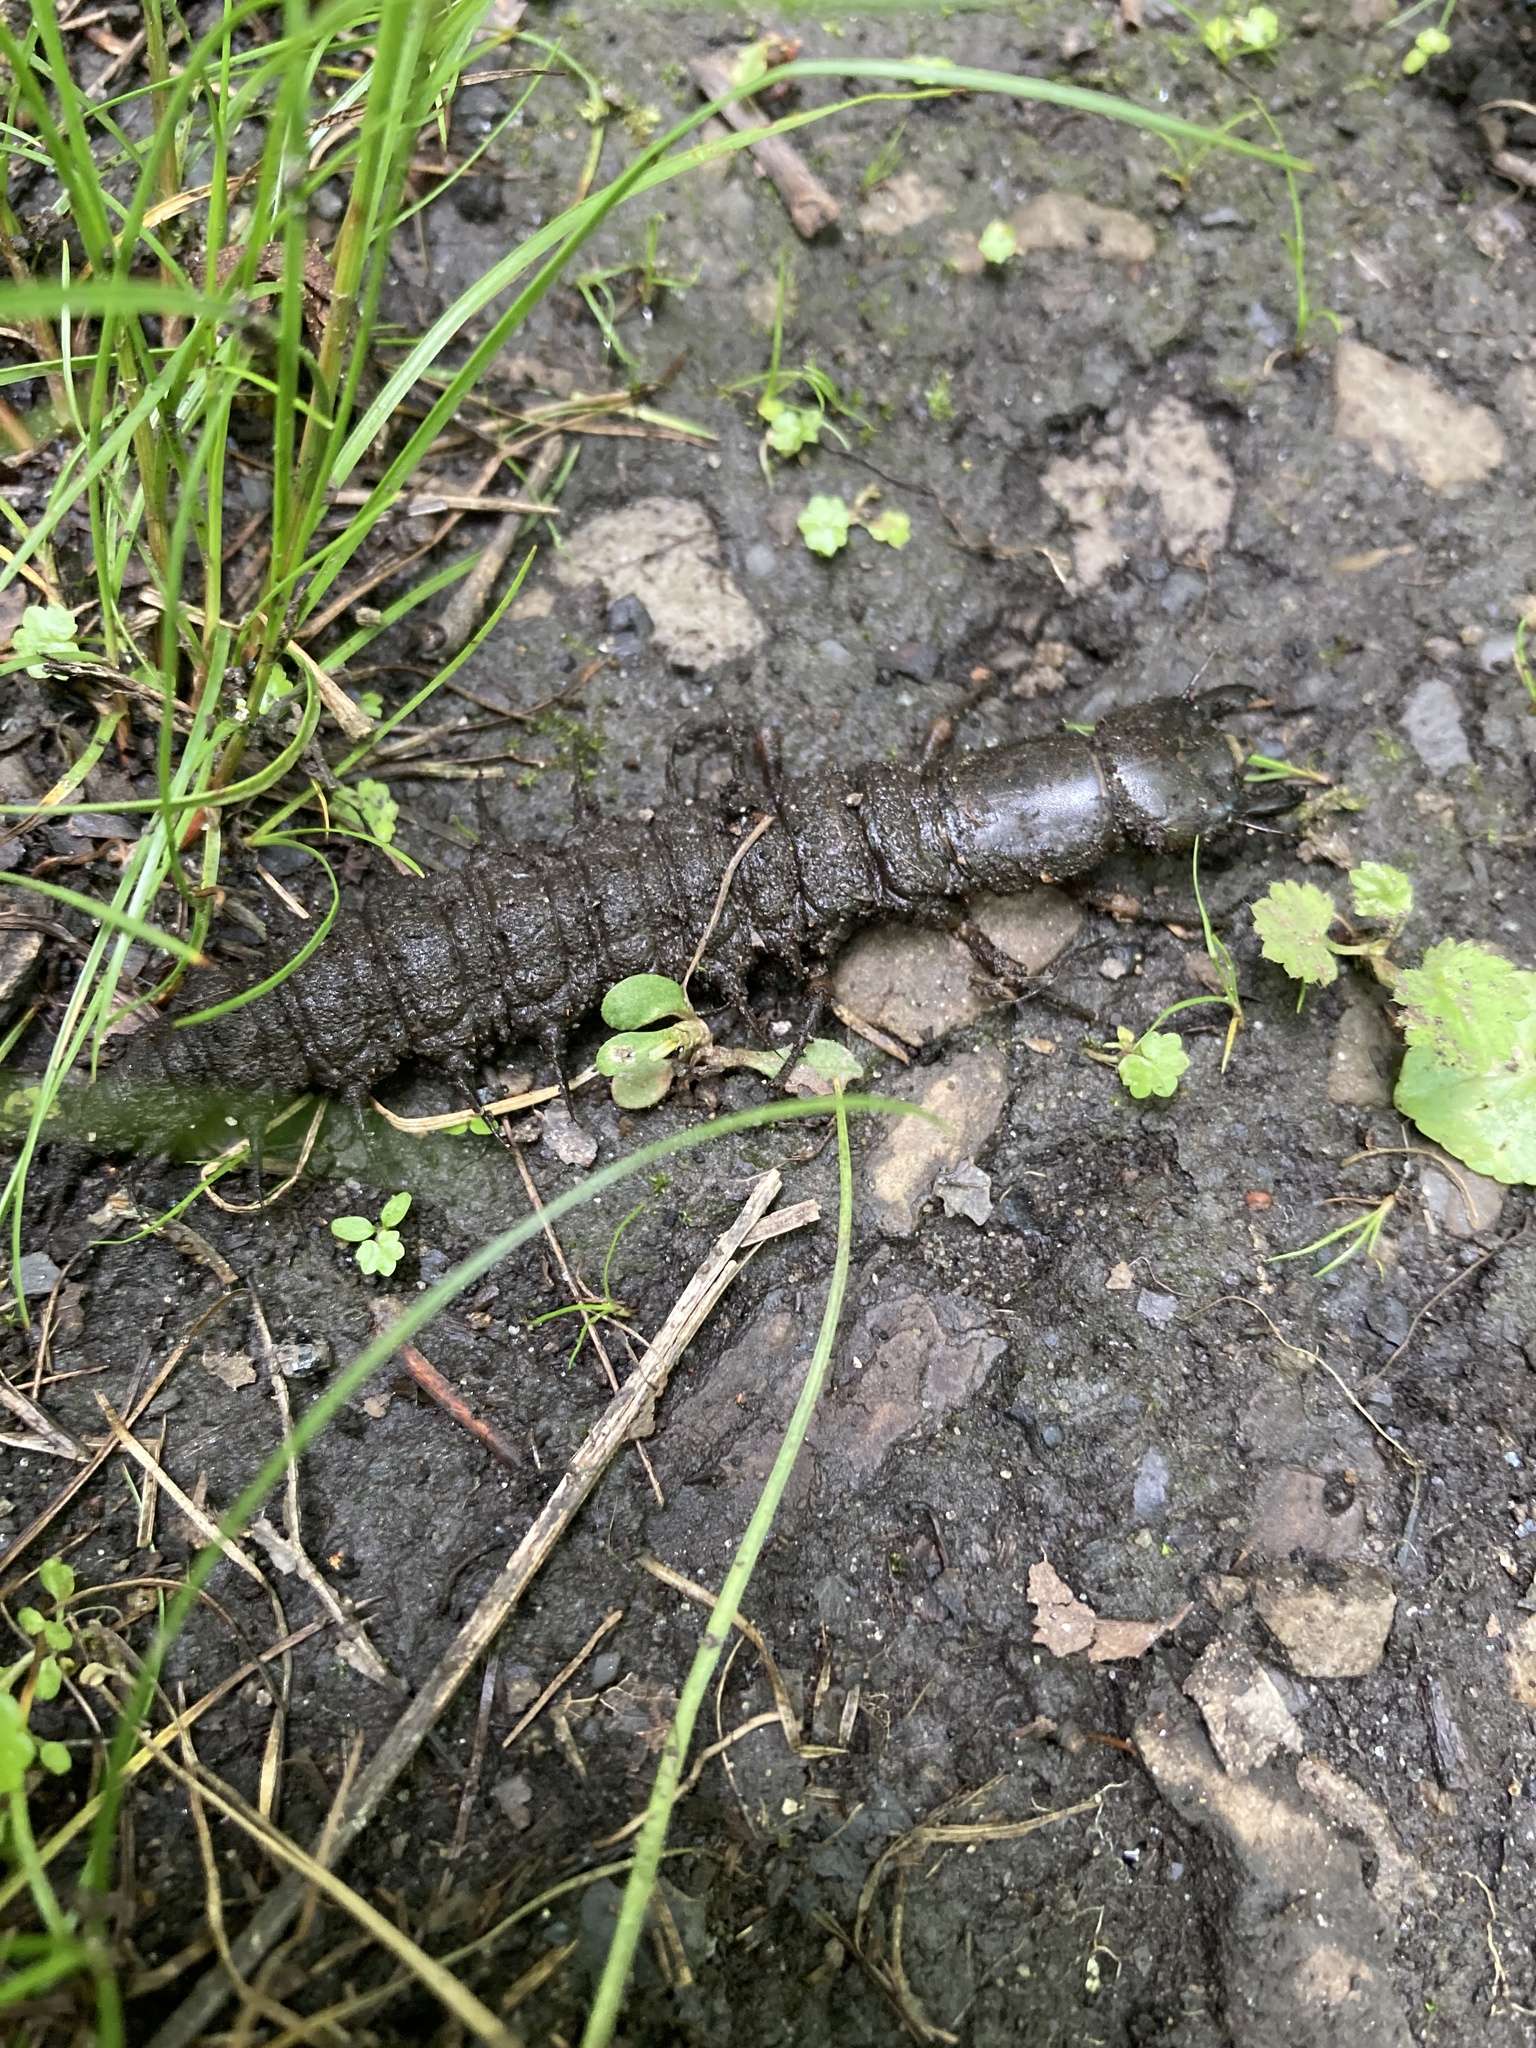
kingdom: Animalia
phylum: Arthropoda
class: Insecta
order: Megaloptera
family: Corydalidae
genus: Corydalus
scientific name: Corydalus cornutus
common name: Dobsonfly
